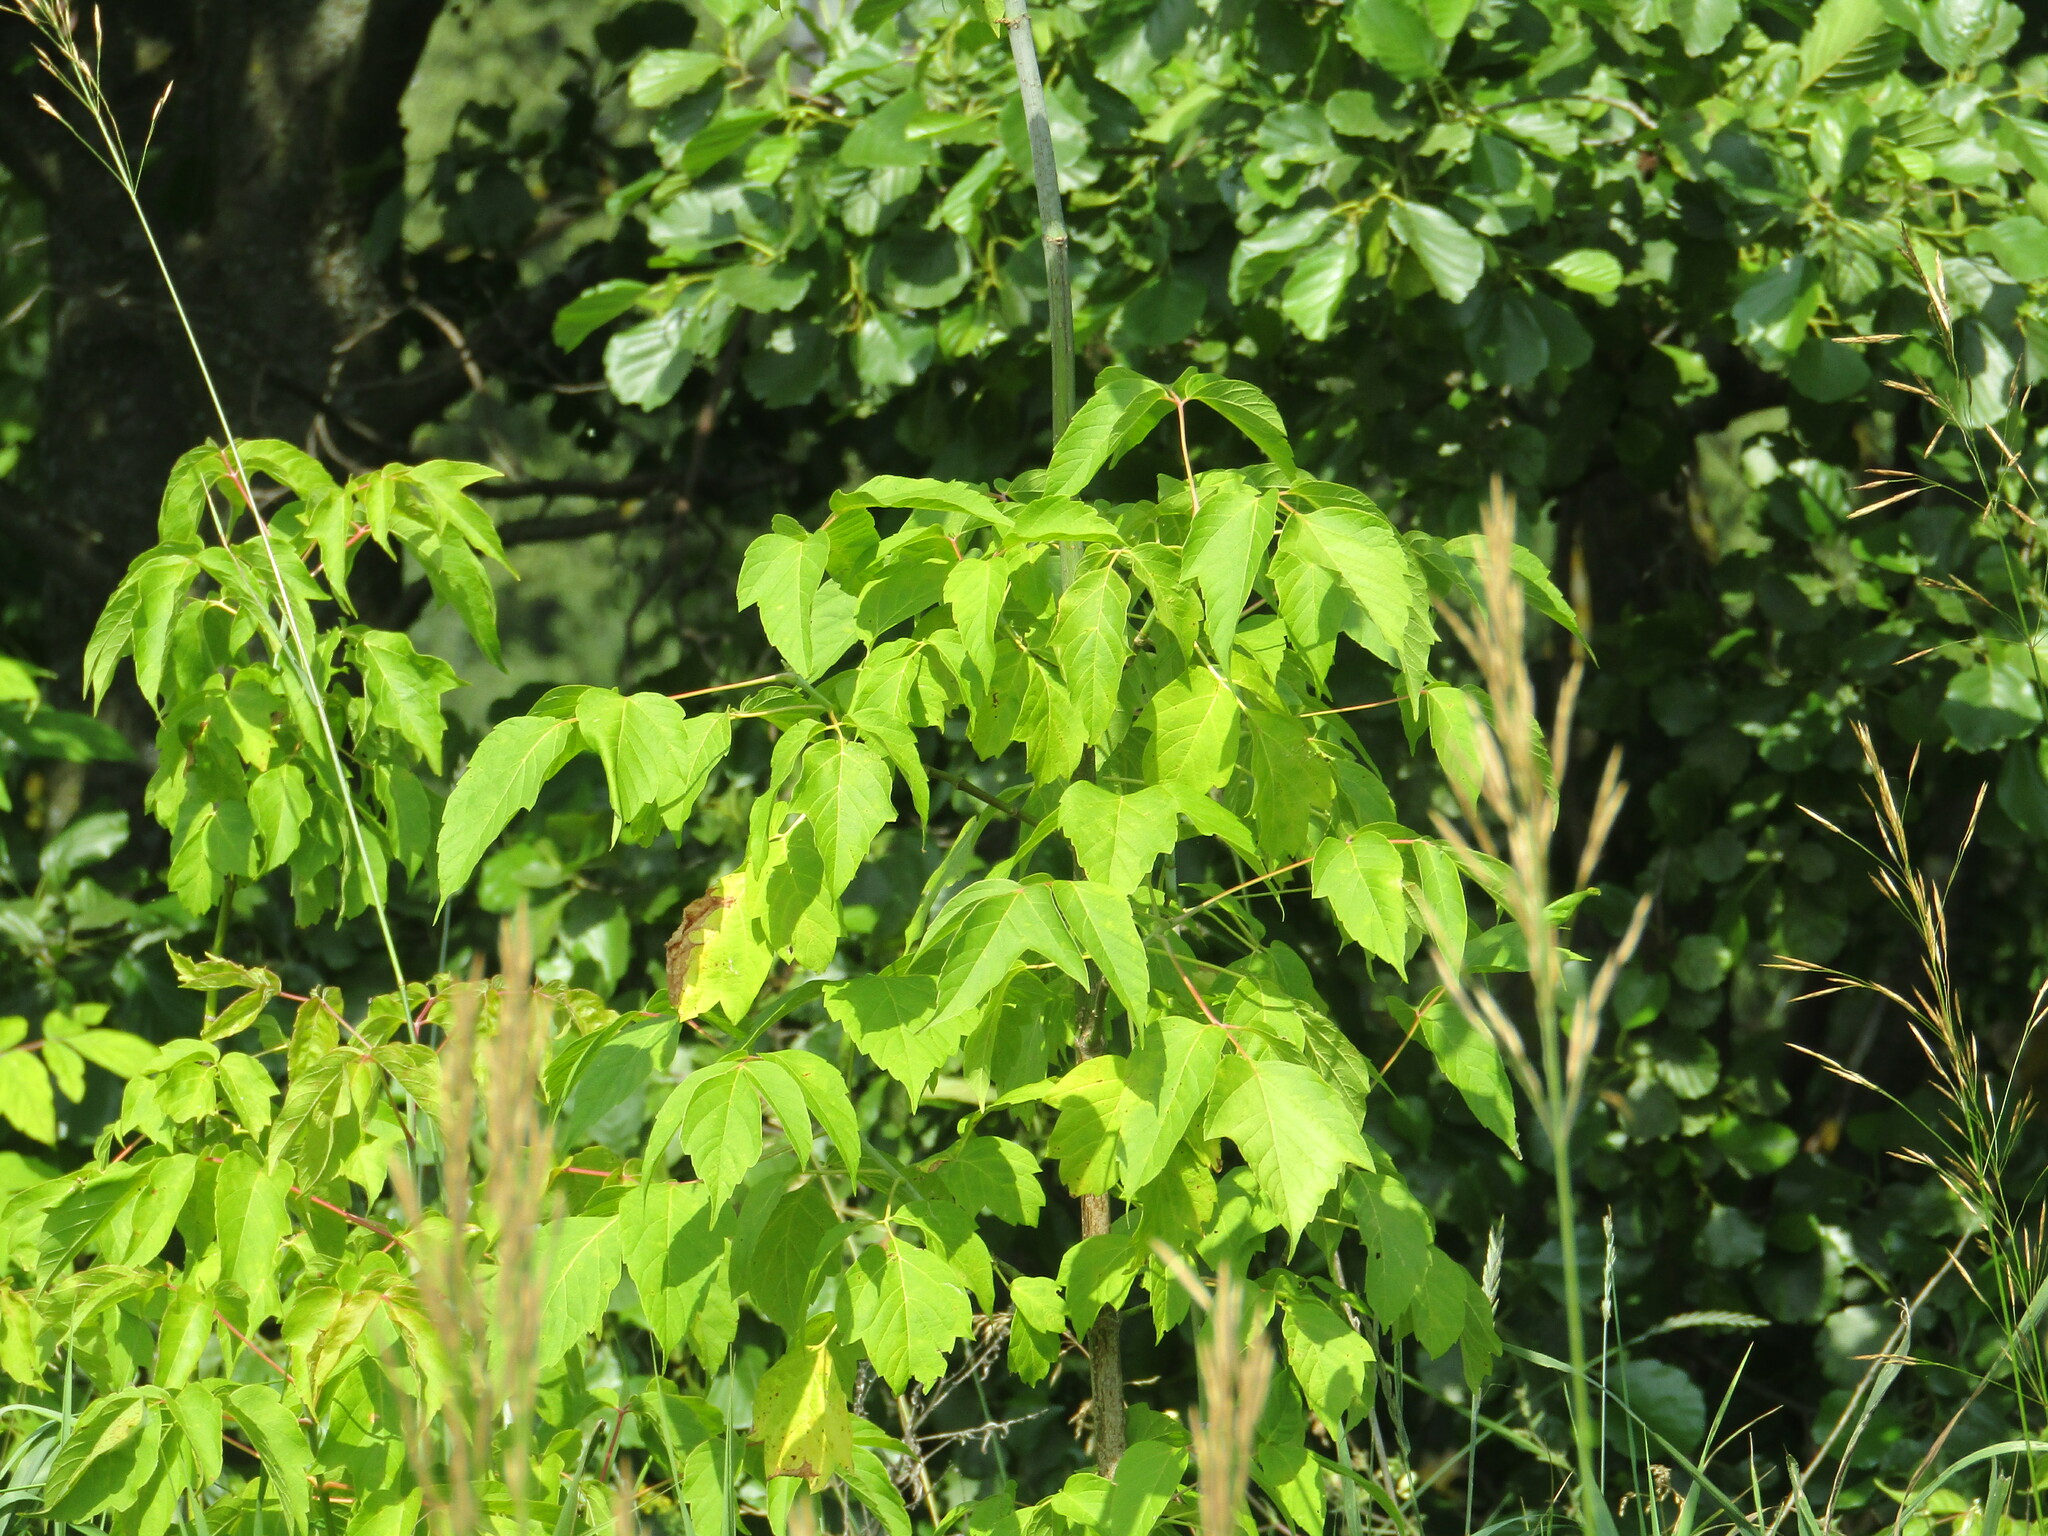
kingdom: Plantae
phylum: Tracheophyta
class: Magnoliopsida
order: Sapindales
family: Sapindaceae
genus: Acer
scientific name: Acer negundo
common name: Ashleaf maple
